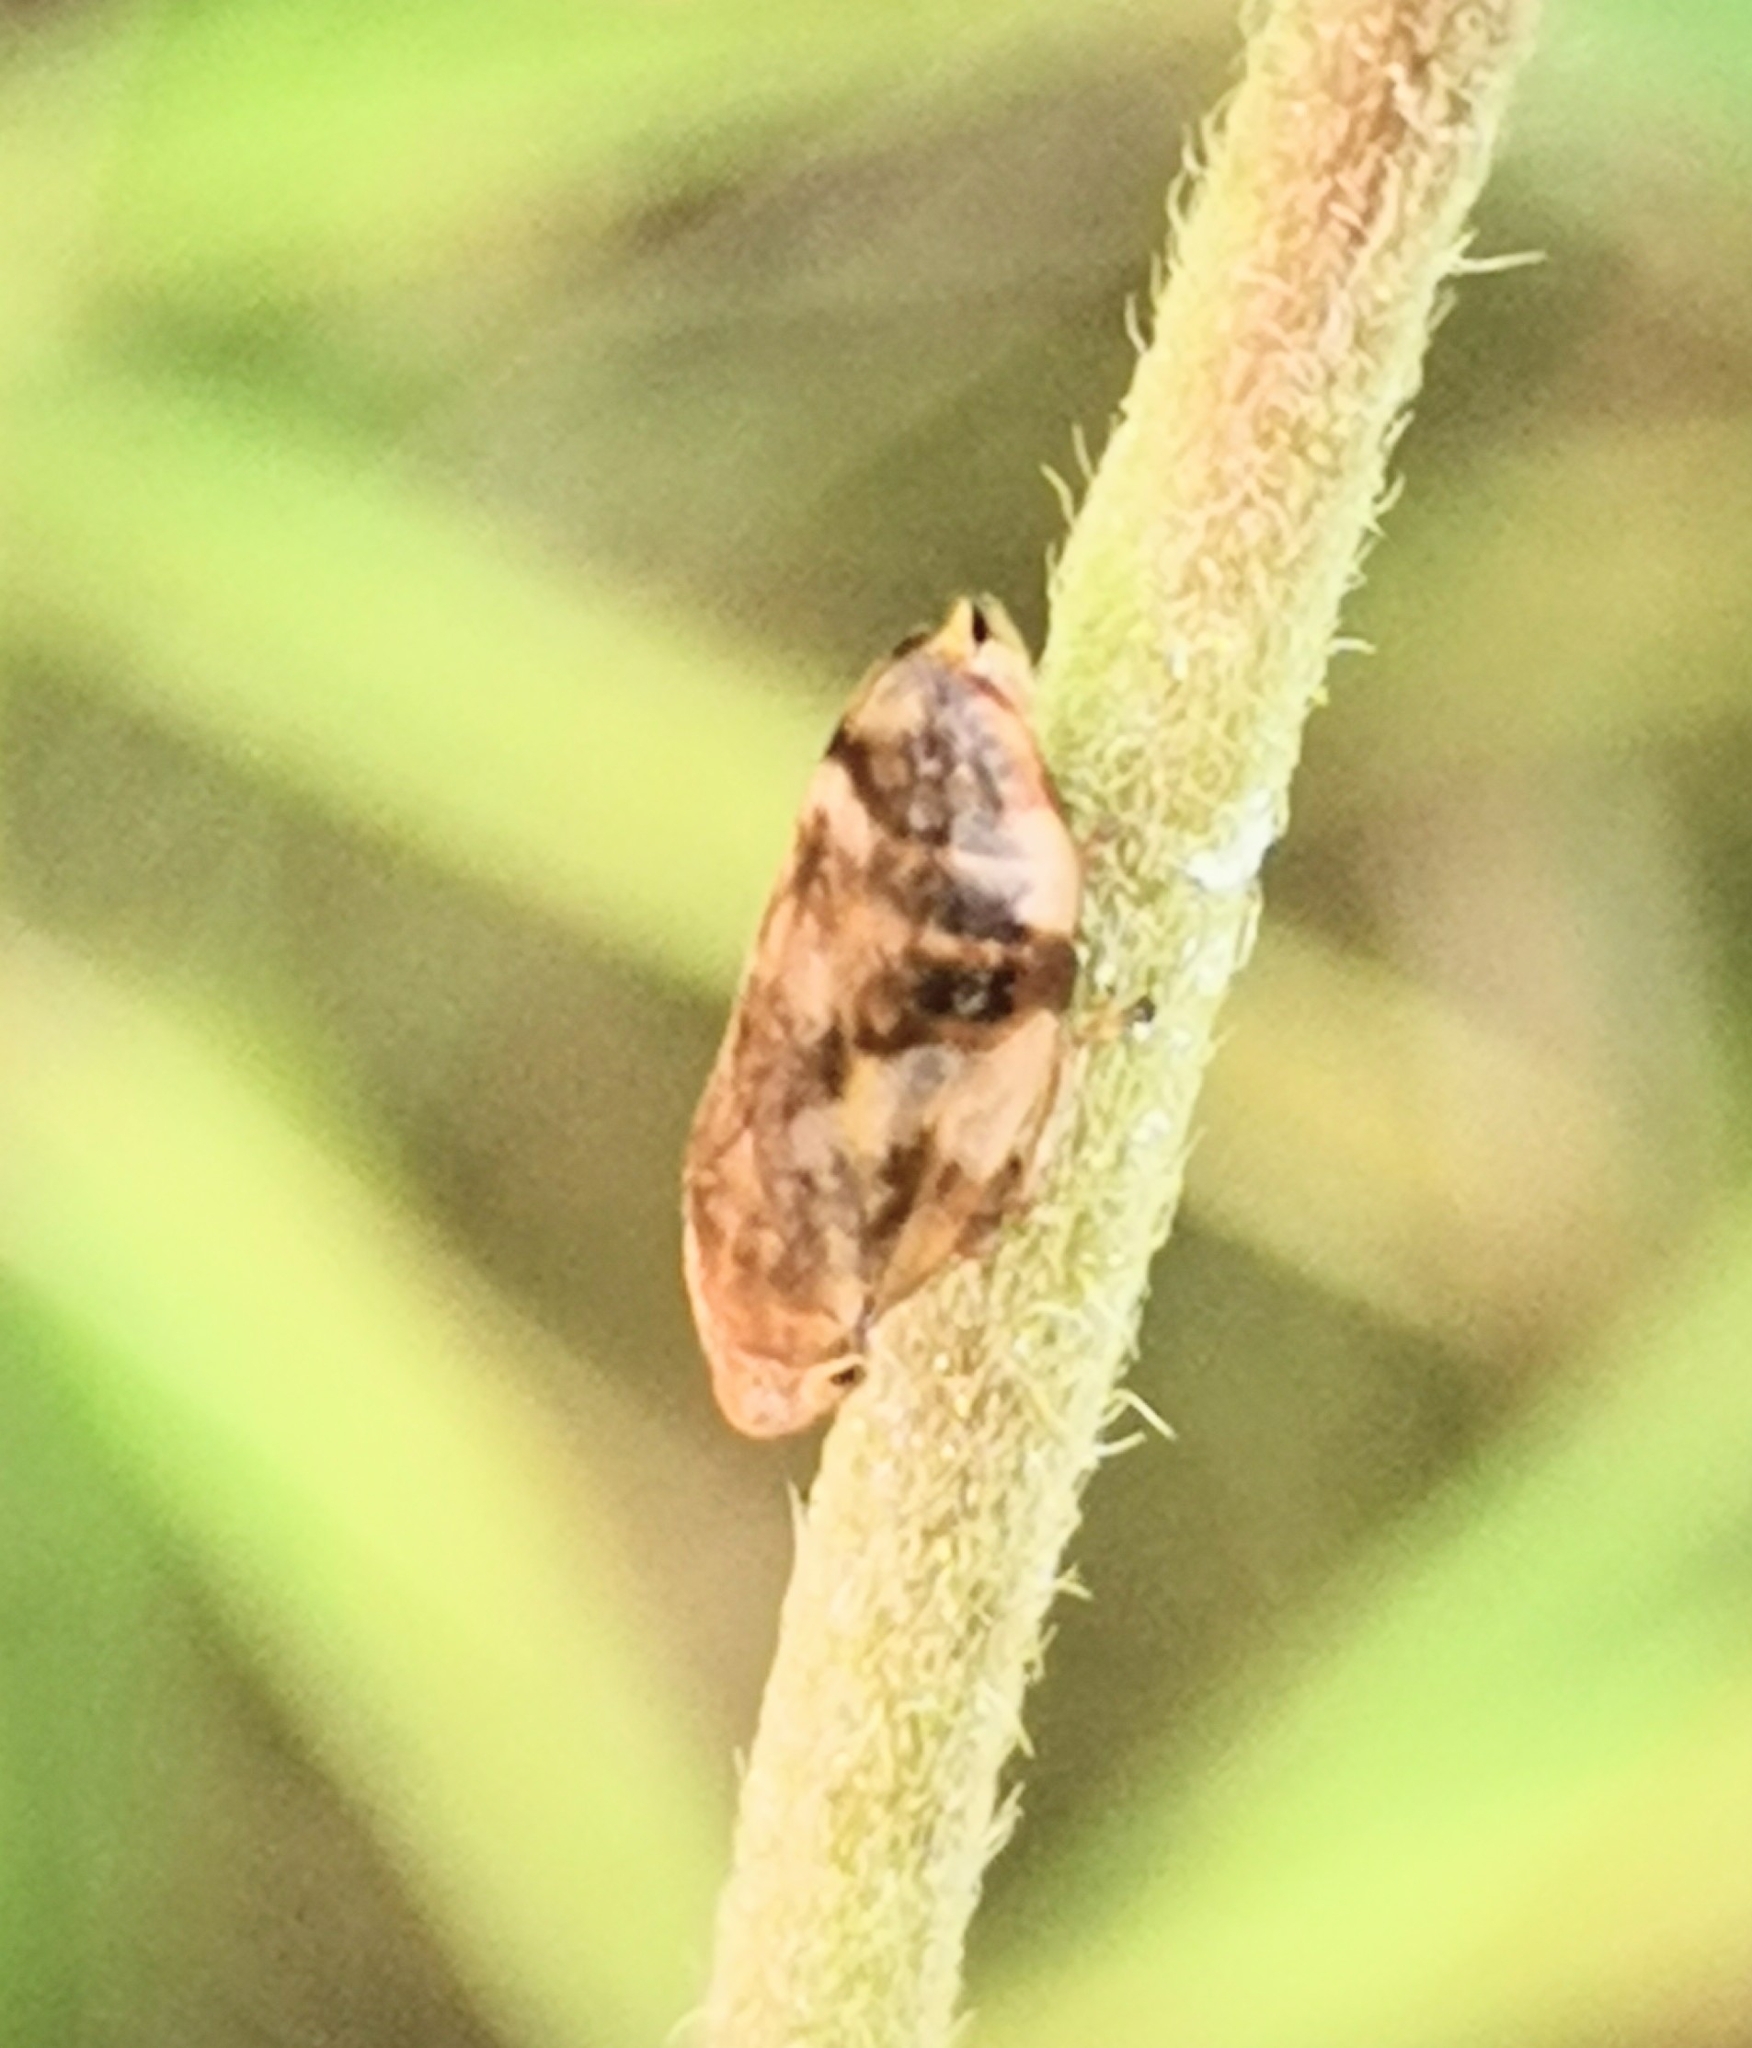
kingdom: Animalia
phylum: Arthropoda
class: Insecta
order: Hemiptera
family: Aphrophoridae
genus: Philaenus
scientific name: Philaenus spumarius
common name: Meadow spittlebug
